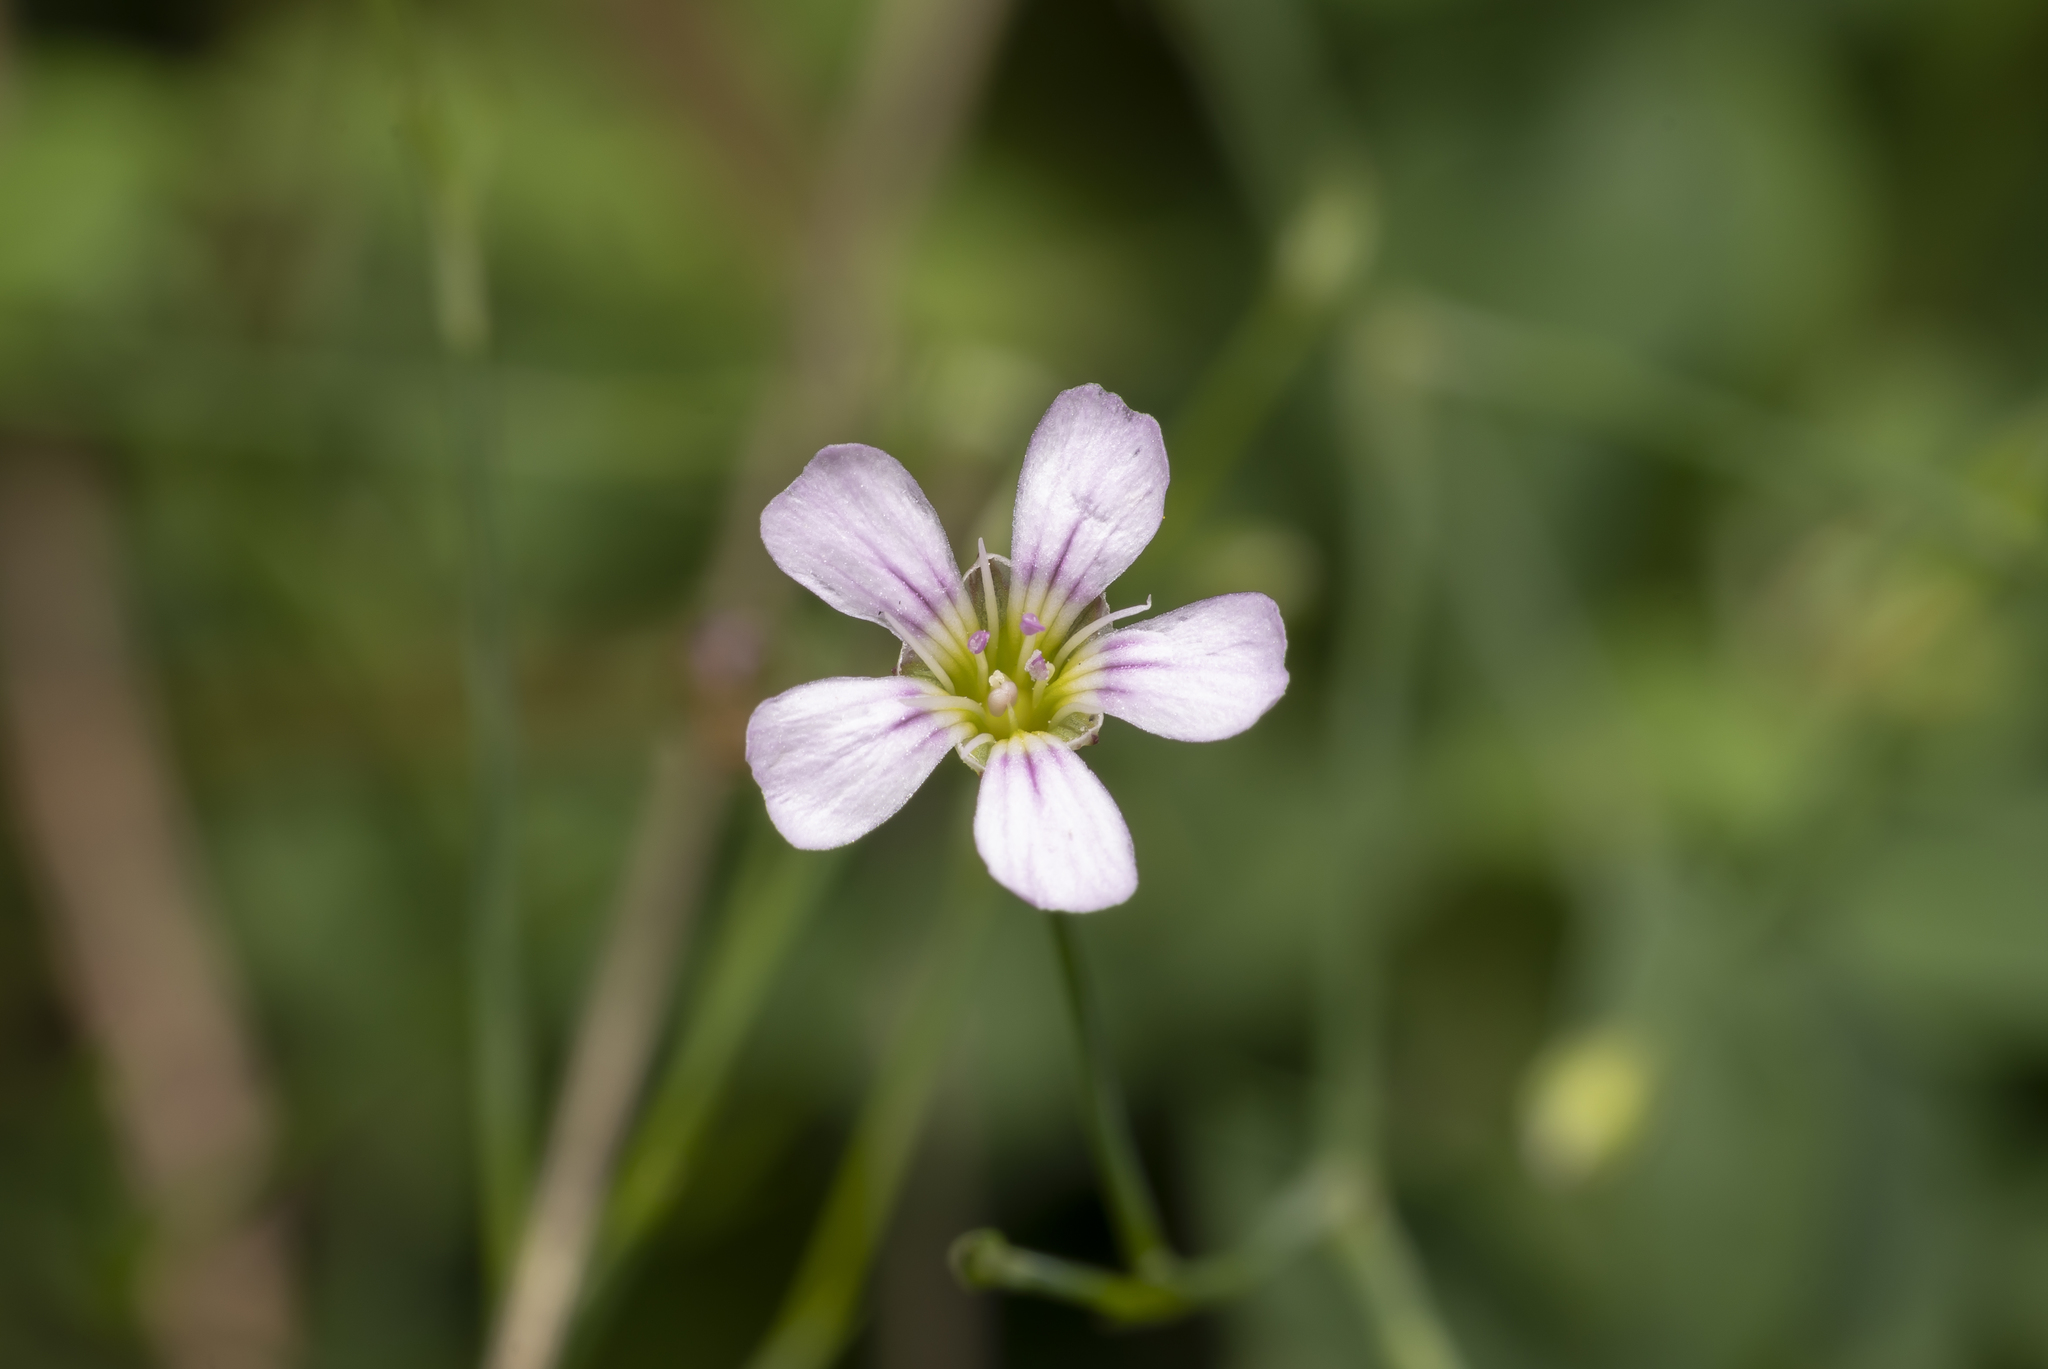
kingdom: Plantae
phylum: Tracheophyta
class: Magnoliopsida
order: Caryophyllales
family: Caryophyllaceae
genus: Petrorhagia
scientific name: Petrorhagia saxifraga
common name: Tunicflower
